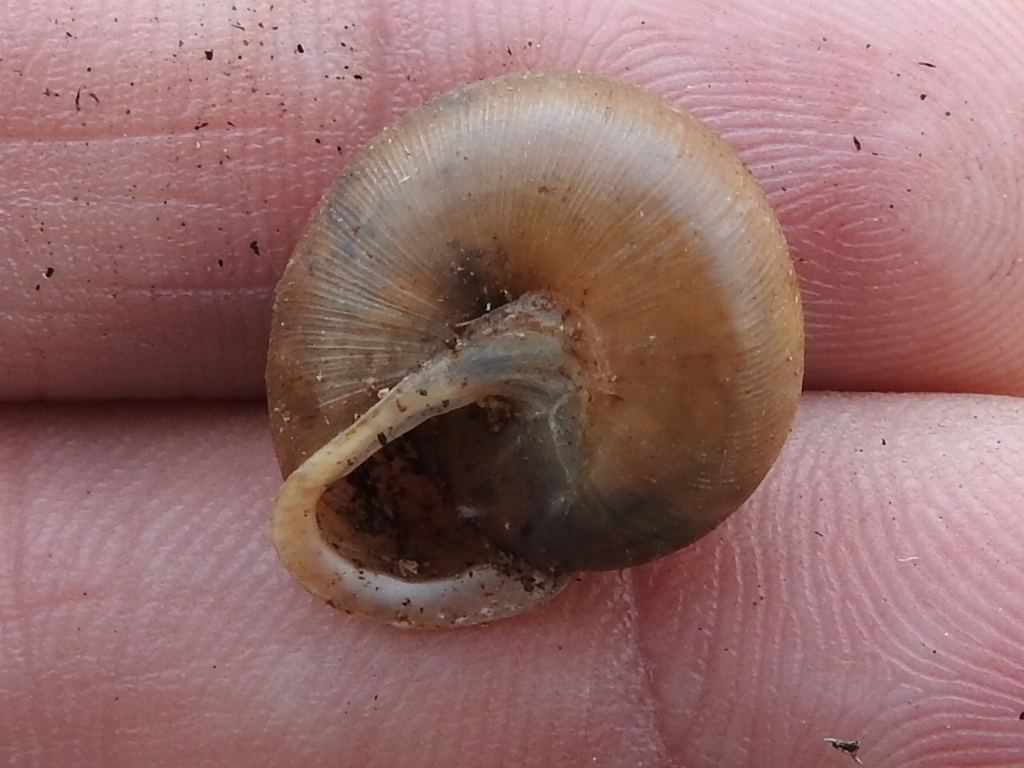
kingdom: Animalia
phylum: Mollusca
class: Gastropoda
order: Stylommatophora
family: Polygyridae
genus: Patera
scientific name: Patera roemeri
